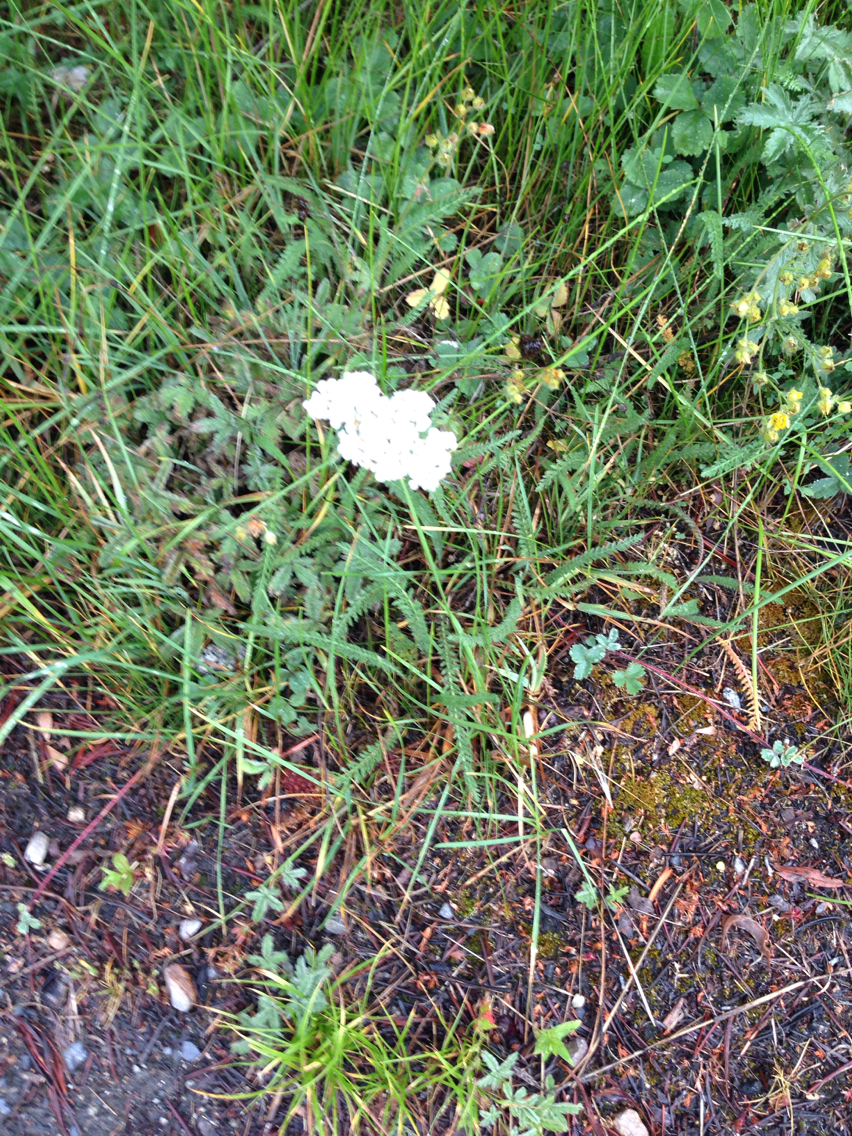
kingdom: Plantae
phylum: Tracheophyta
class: Magnoliopsida
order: Asterales
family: Asteraceae
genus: Achillea
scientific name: Achillea millefolium
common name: Yarrow
